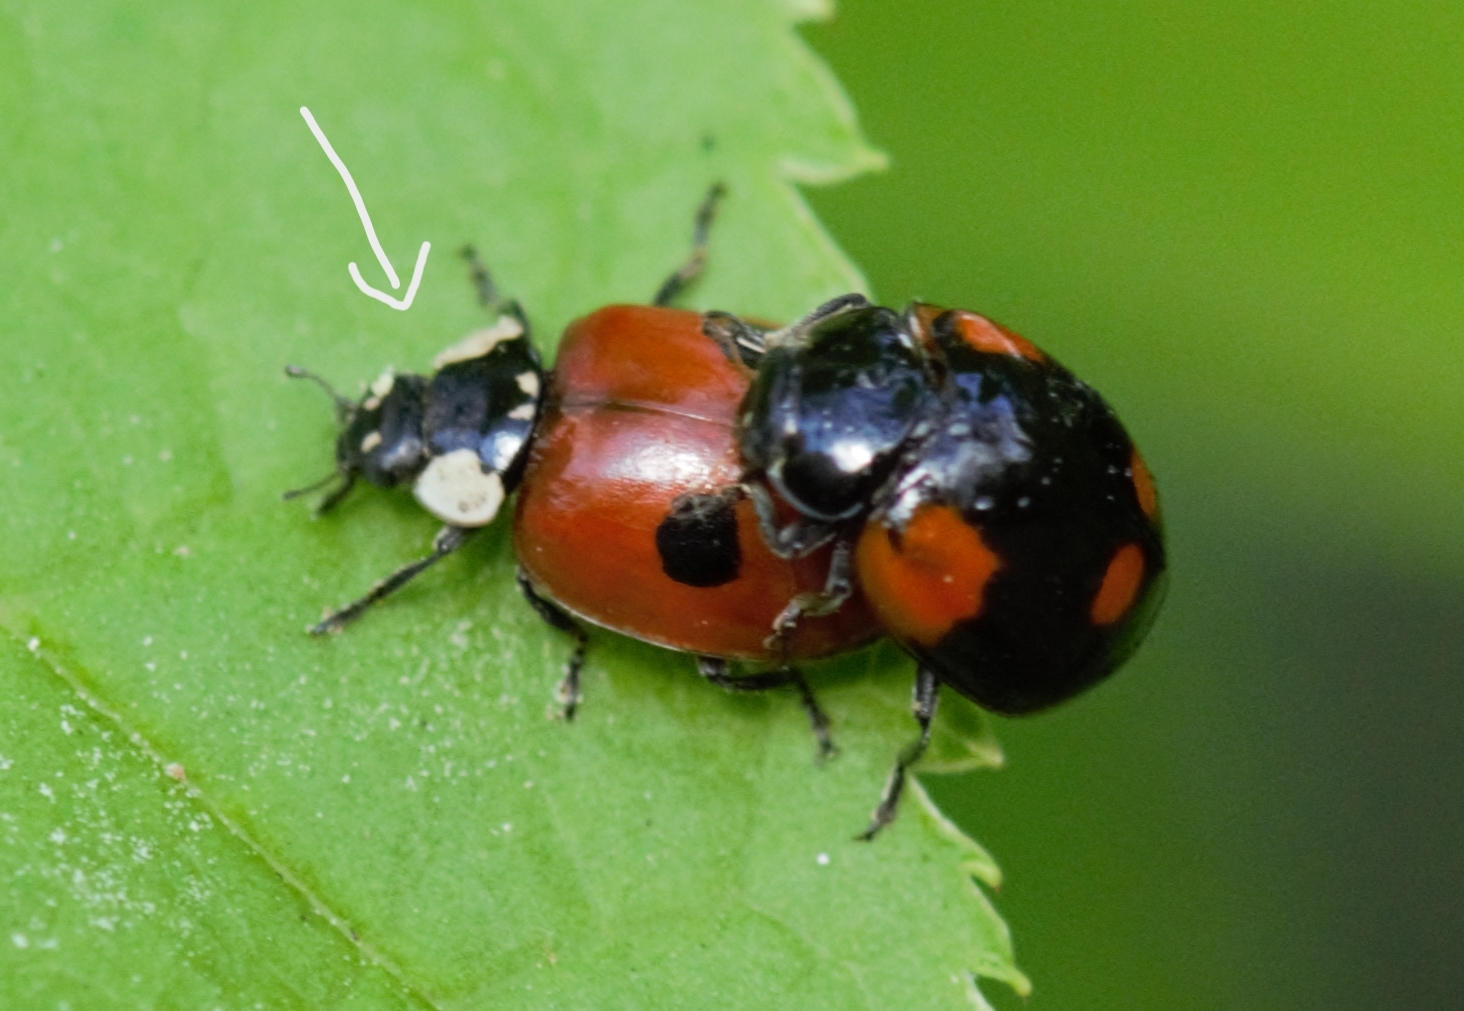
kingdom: Animalia
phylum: Arthropoda
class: Insecta
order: Coleoptera
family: Coccinellidae
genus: Adalia
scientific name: Adalia bipunctata
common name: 2-spot ladybird
